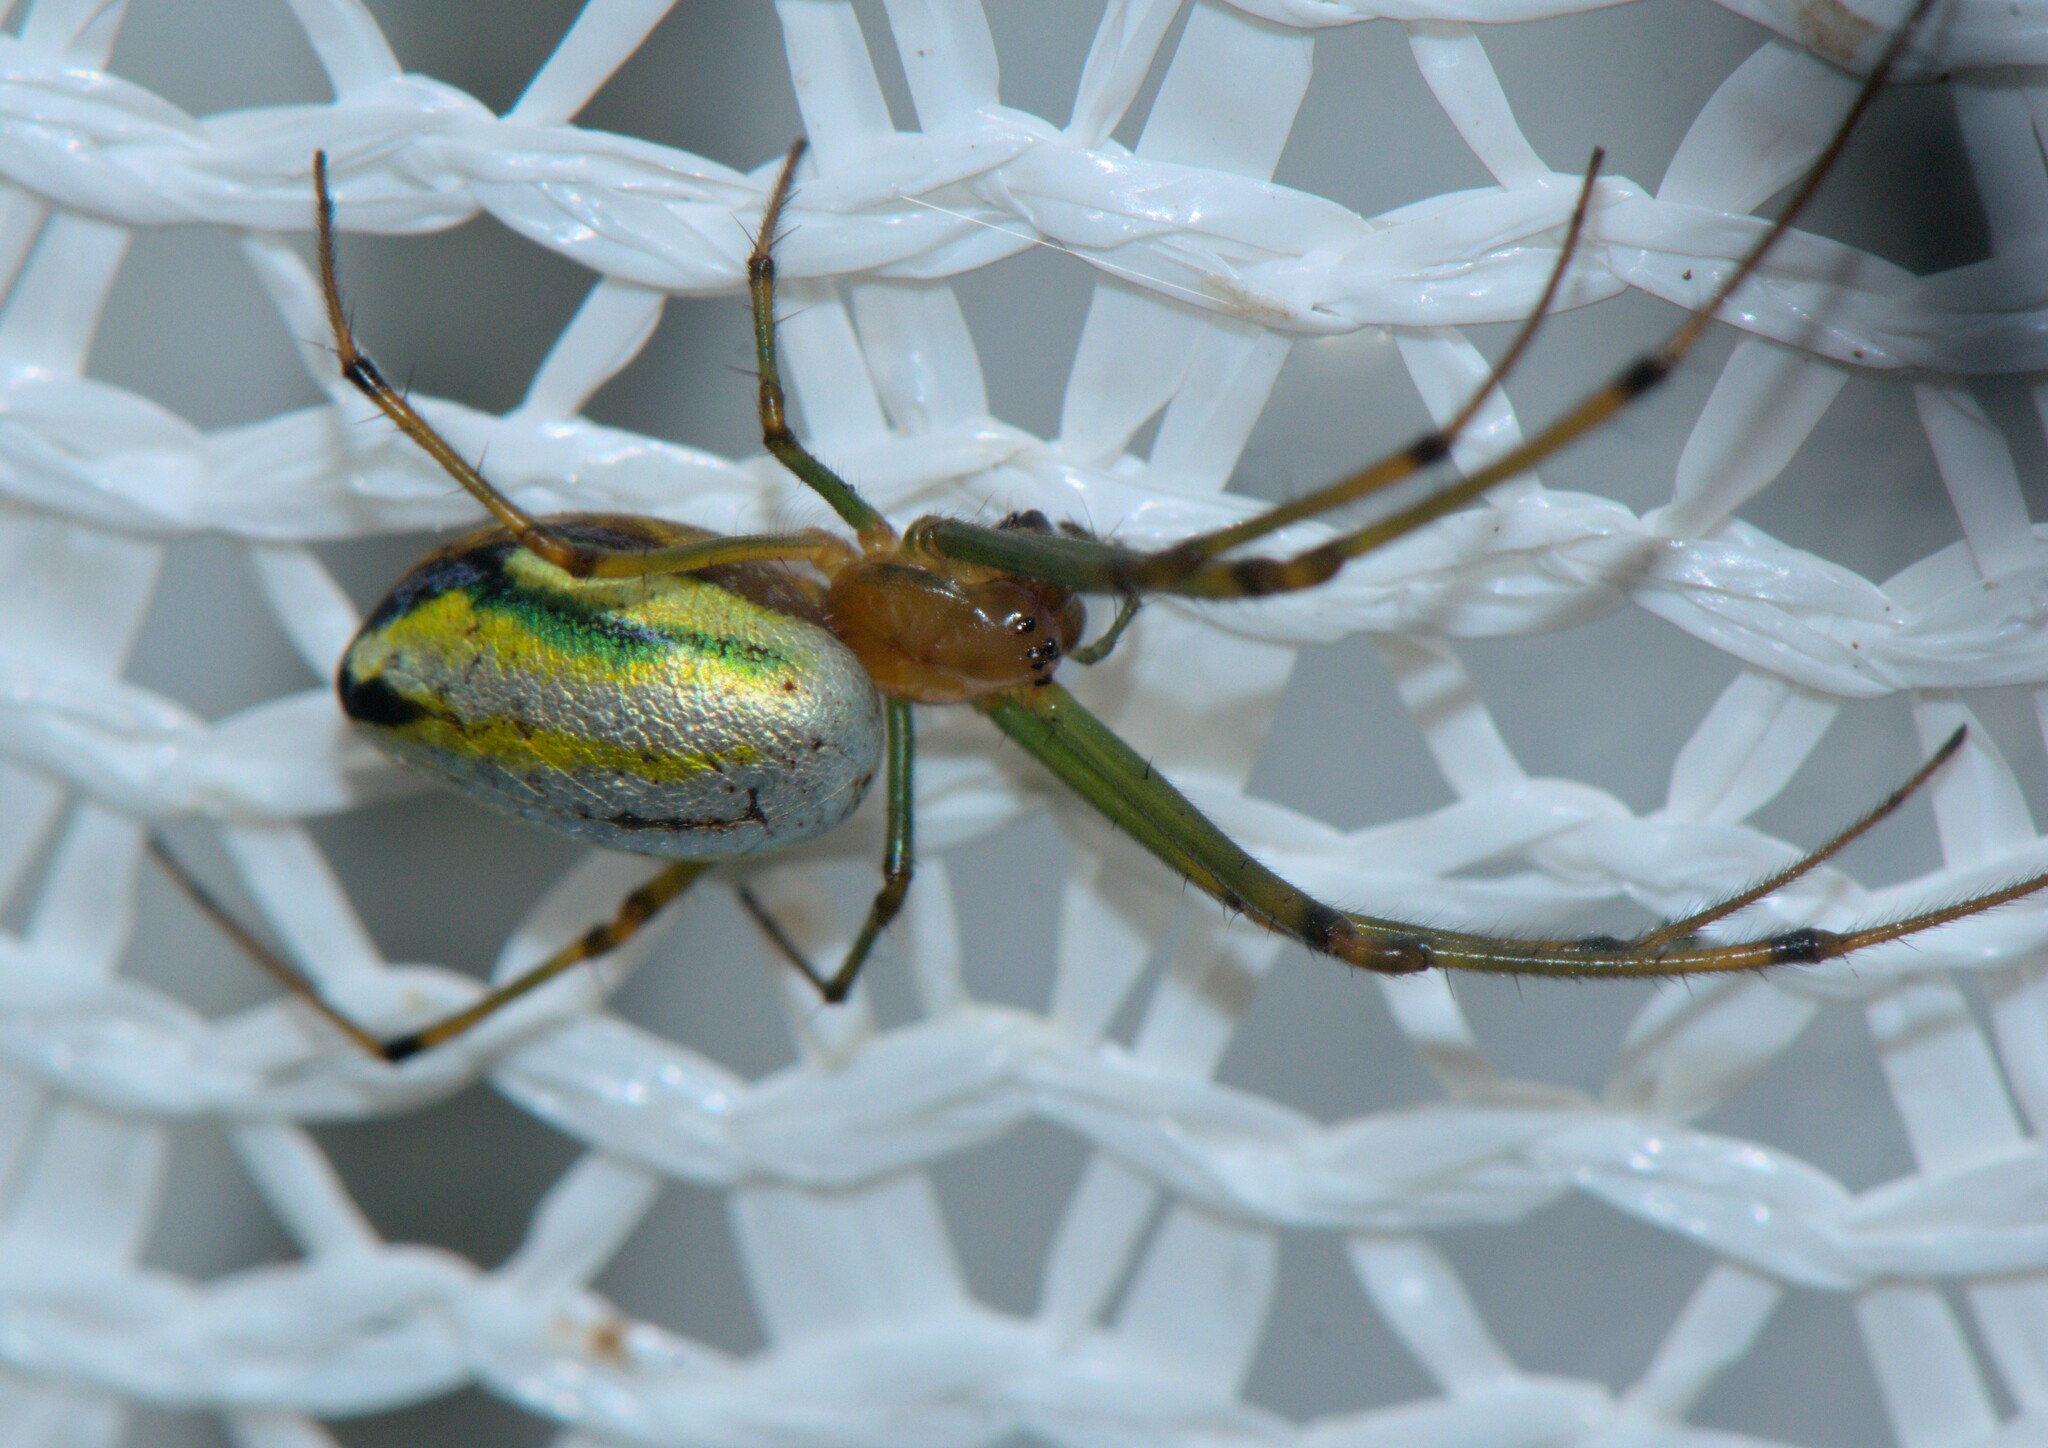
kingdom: Animalia
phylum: Arthropoda
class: Arachnida
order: Araneae
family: Tetragnathidae
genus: Leucauge
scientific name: Leucauge celebesiana
